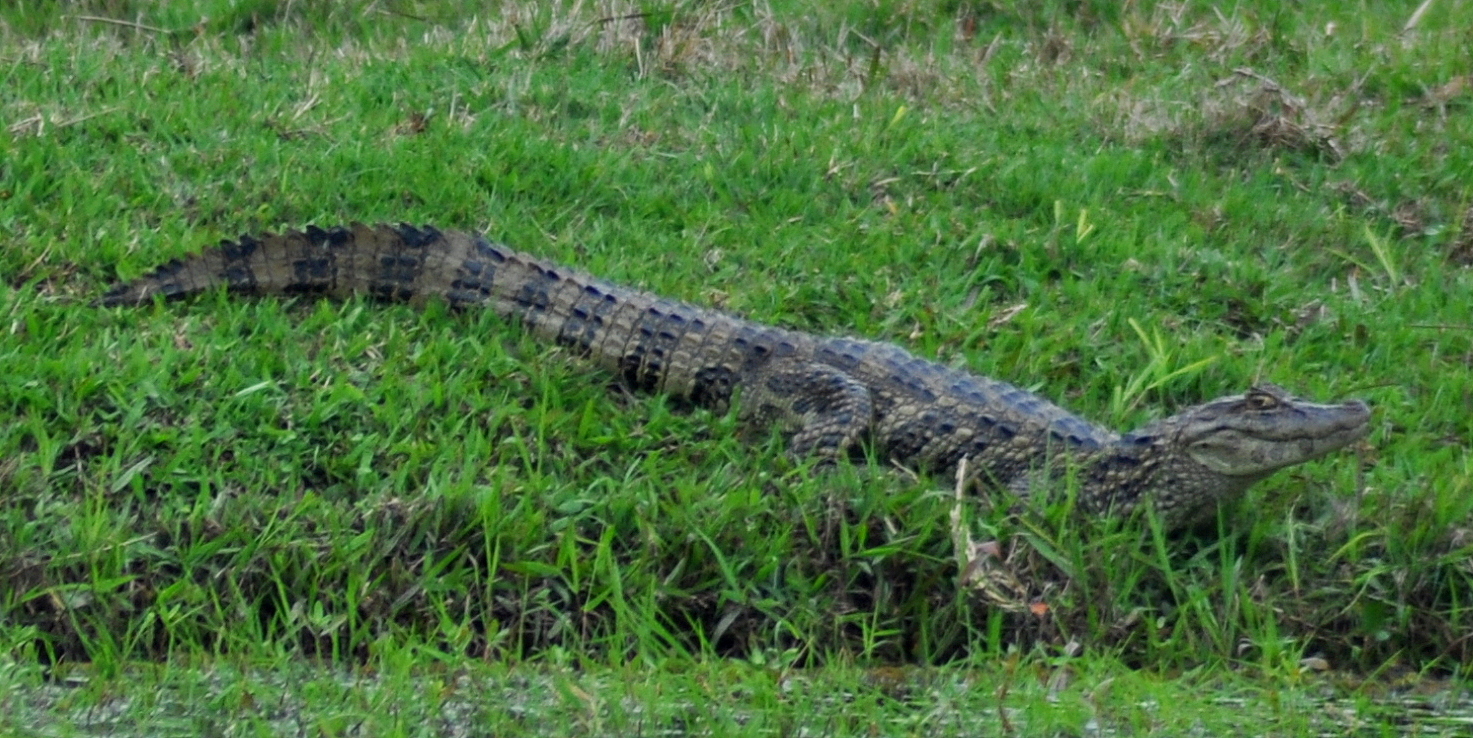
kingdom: Animalia
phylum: Chordata
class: Crocodylia
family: Alligatoridae
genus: Caiman
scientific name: Caiman latirostris
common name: Broad-snouted caiman
